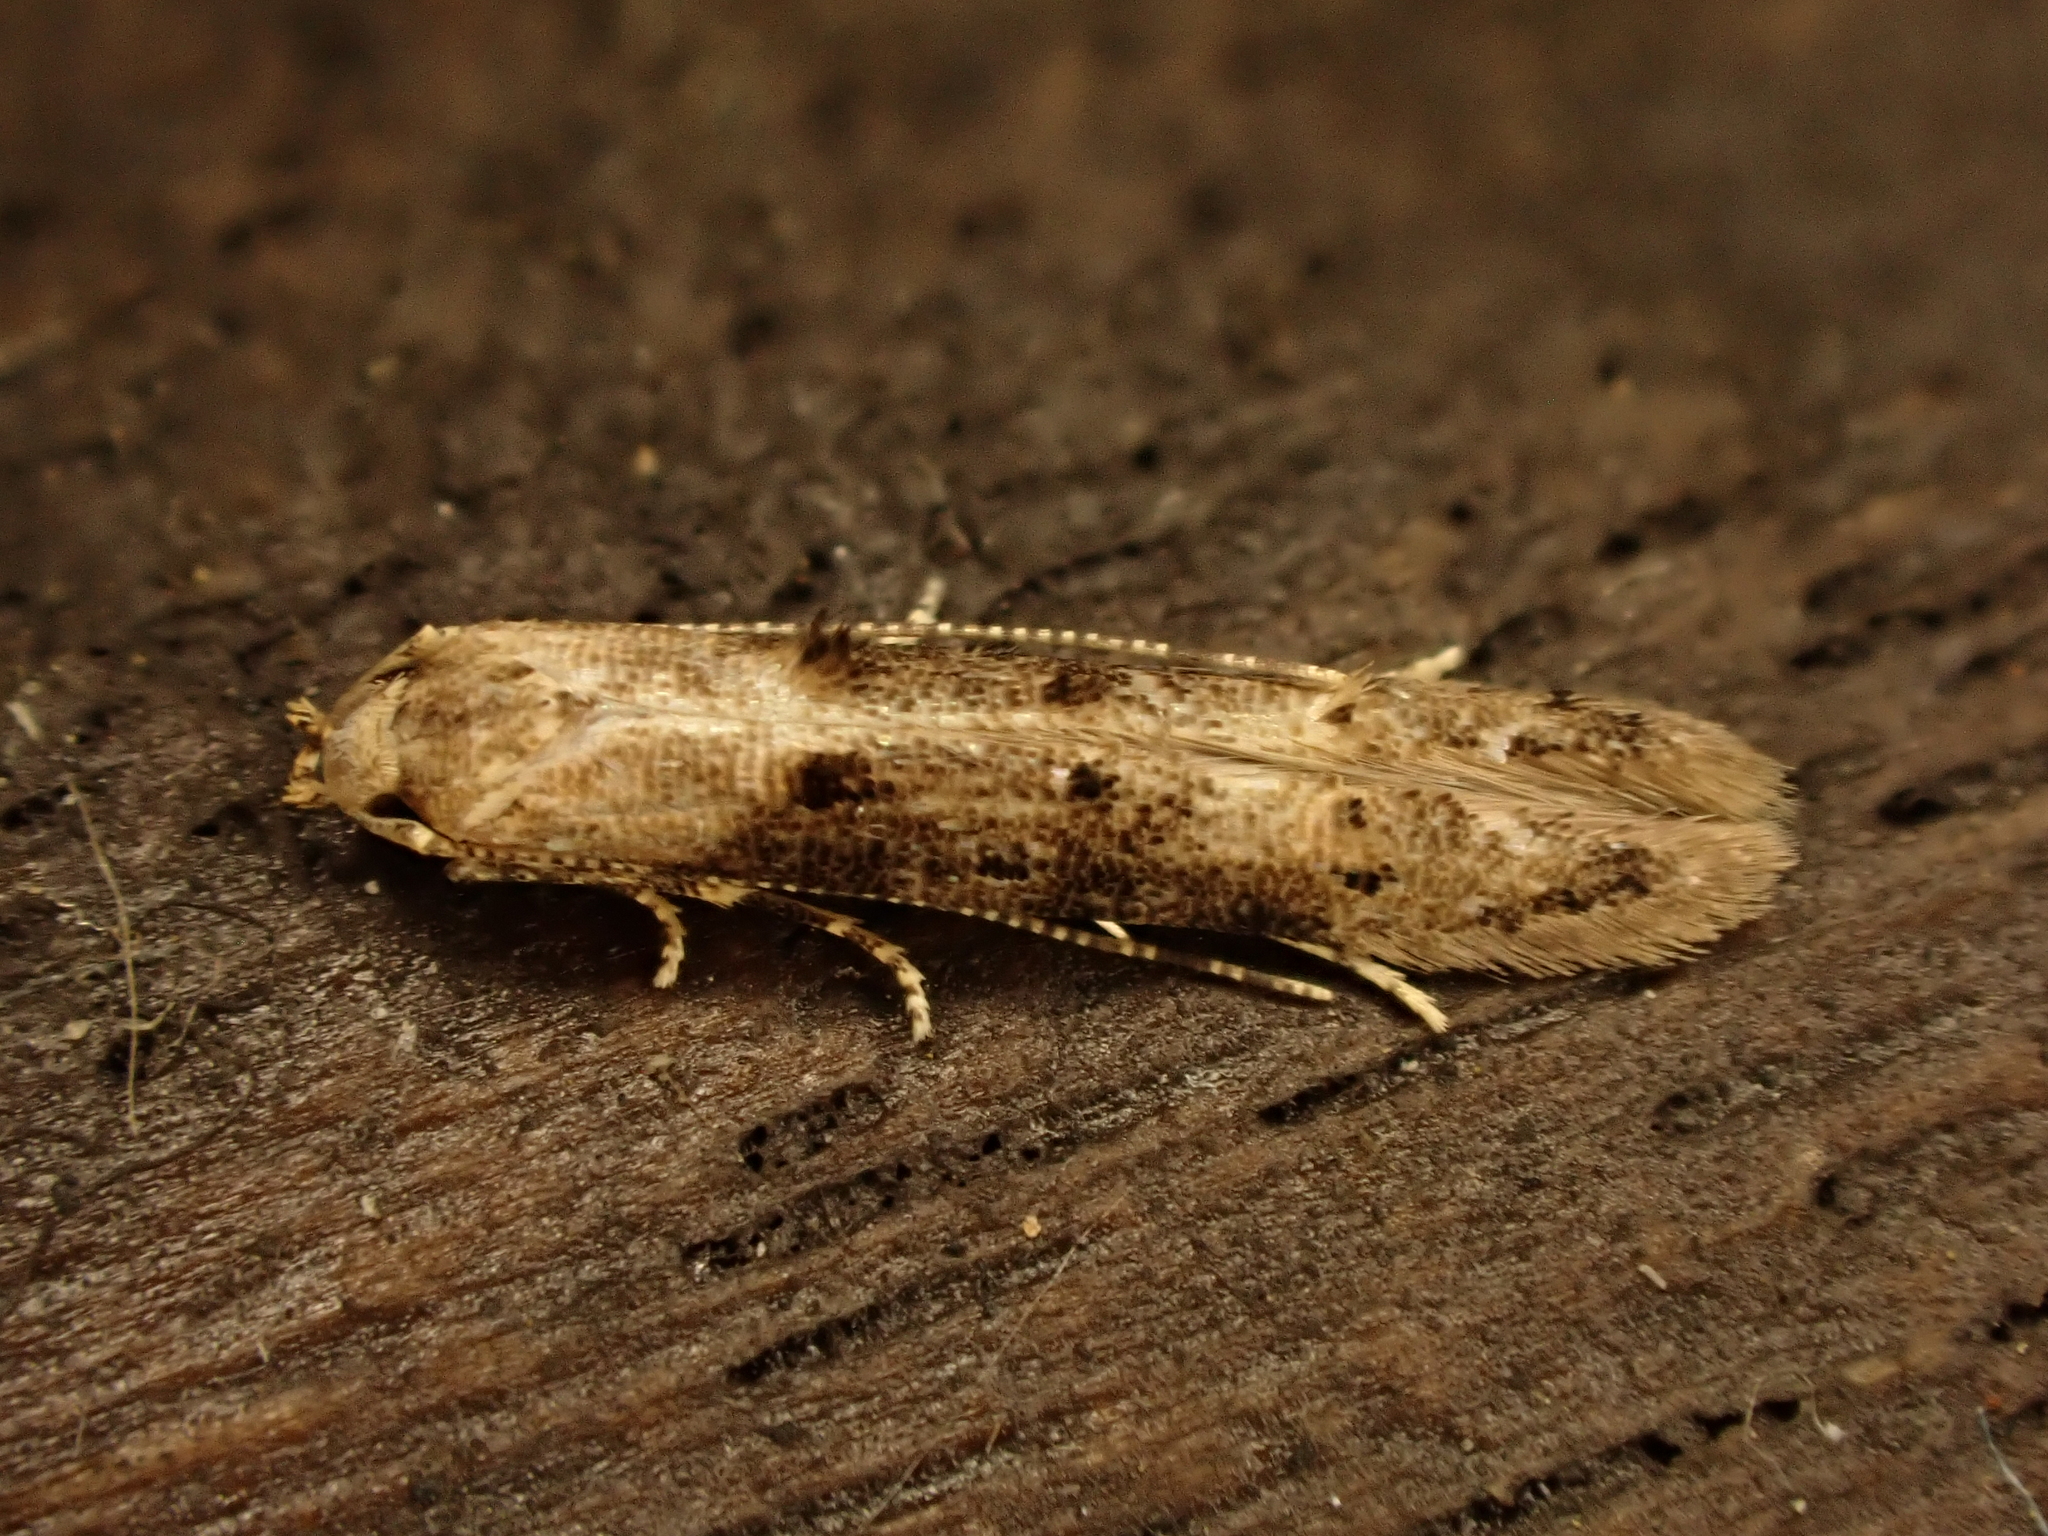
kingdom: Animalia
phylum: Arthropoda
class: Insecta
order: Lepidoptera
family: Elachistidae
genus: Microcolona
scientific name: Microcolona limodes
